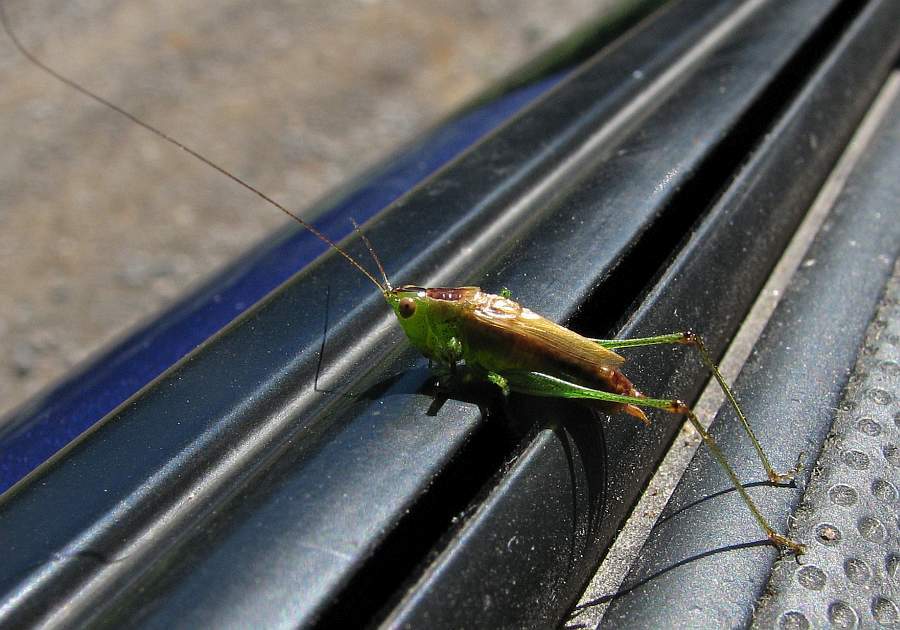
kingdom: Animalia
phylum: Arthropoda
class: Insecta
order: Orthoptera
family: Tettigoniidae
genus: Conocephalus
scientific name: Conocephalus brevipennis
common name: Short-winged meadow katydid
